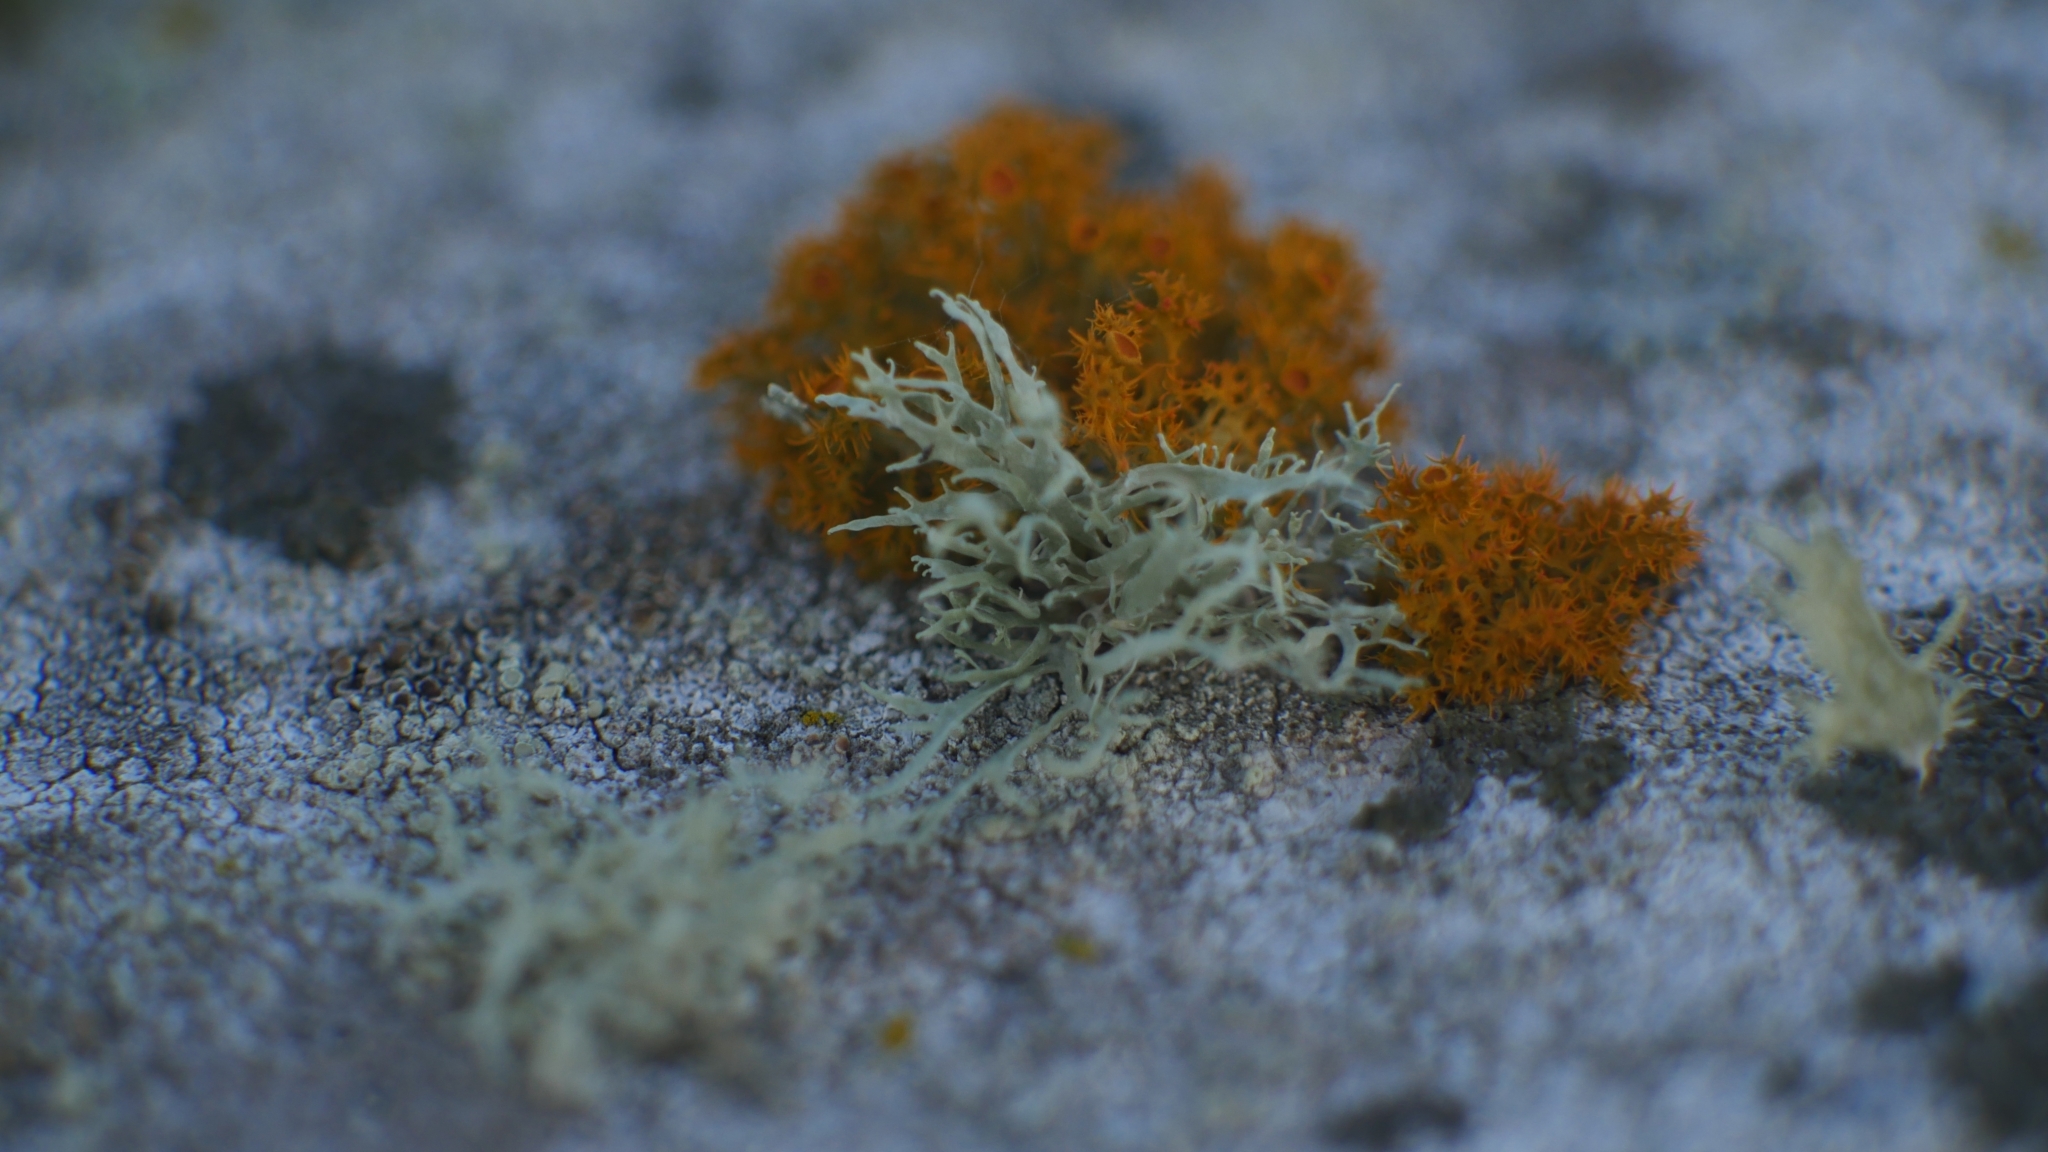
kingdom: Fungi
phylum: Ascomycota
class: Lecanoromycetes
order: Teloschistales
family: Teloschistaceae
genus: Niorma
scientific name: Niorma chrysophthalma
